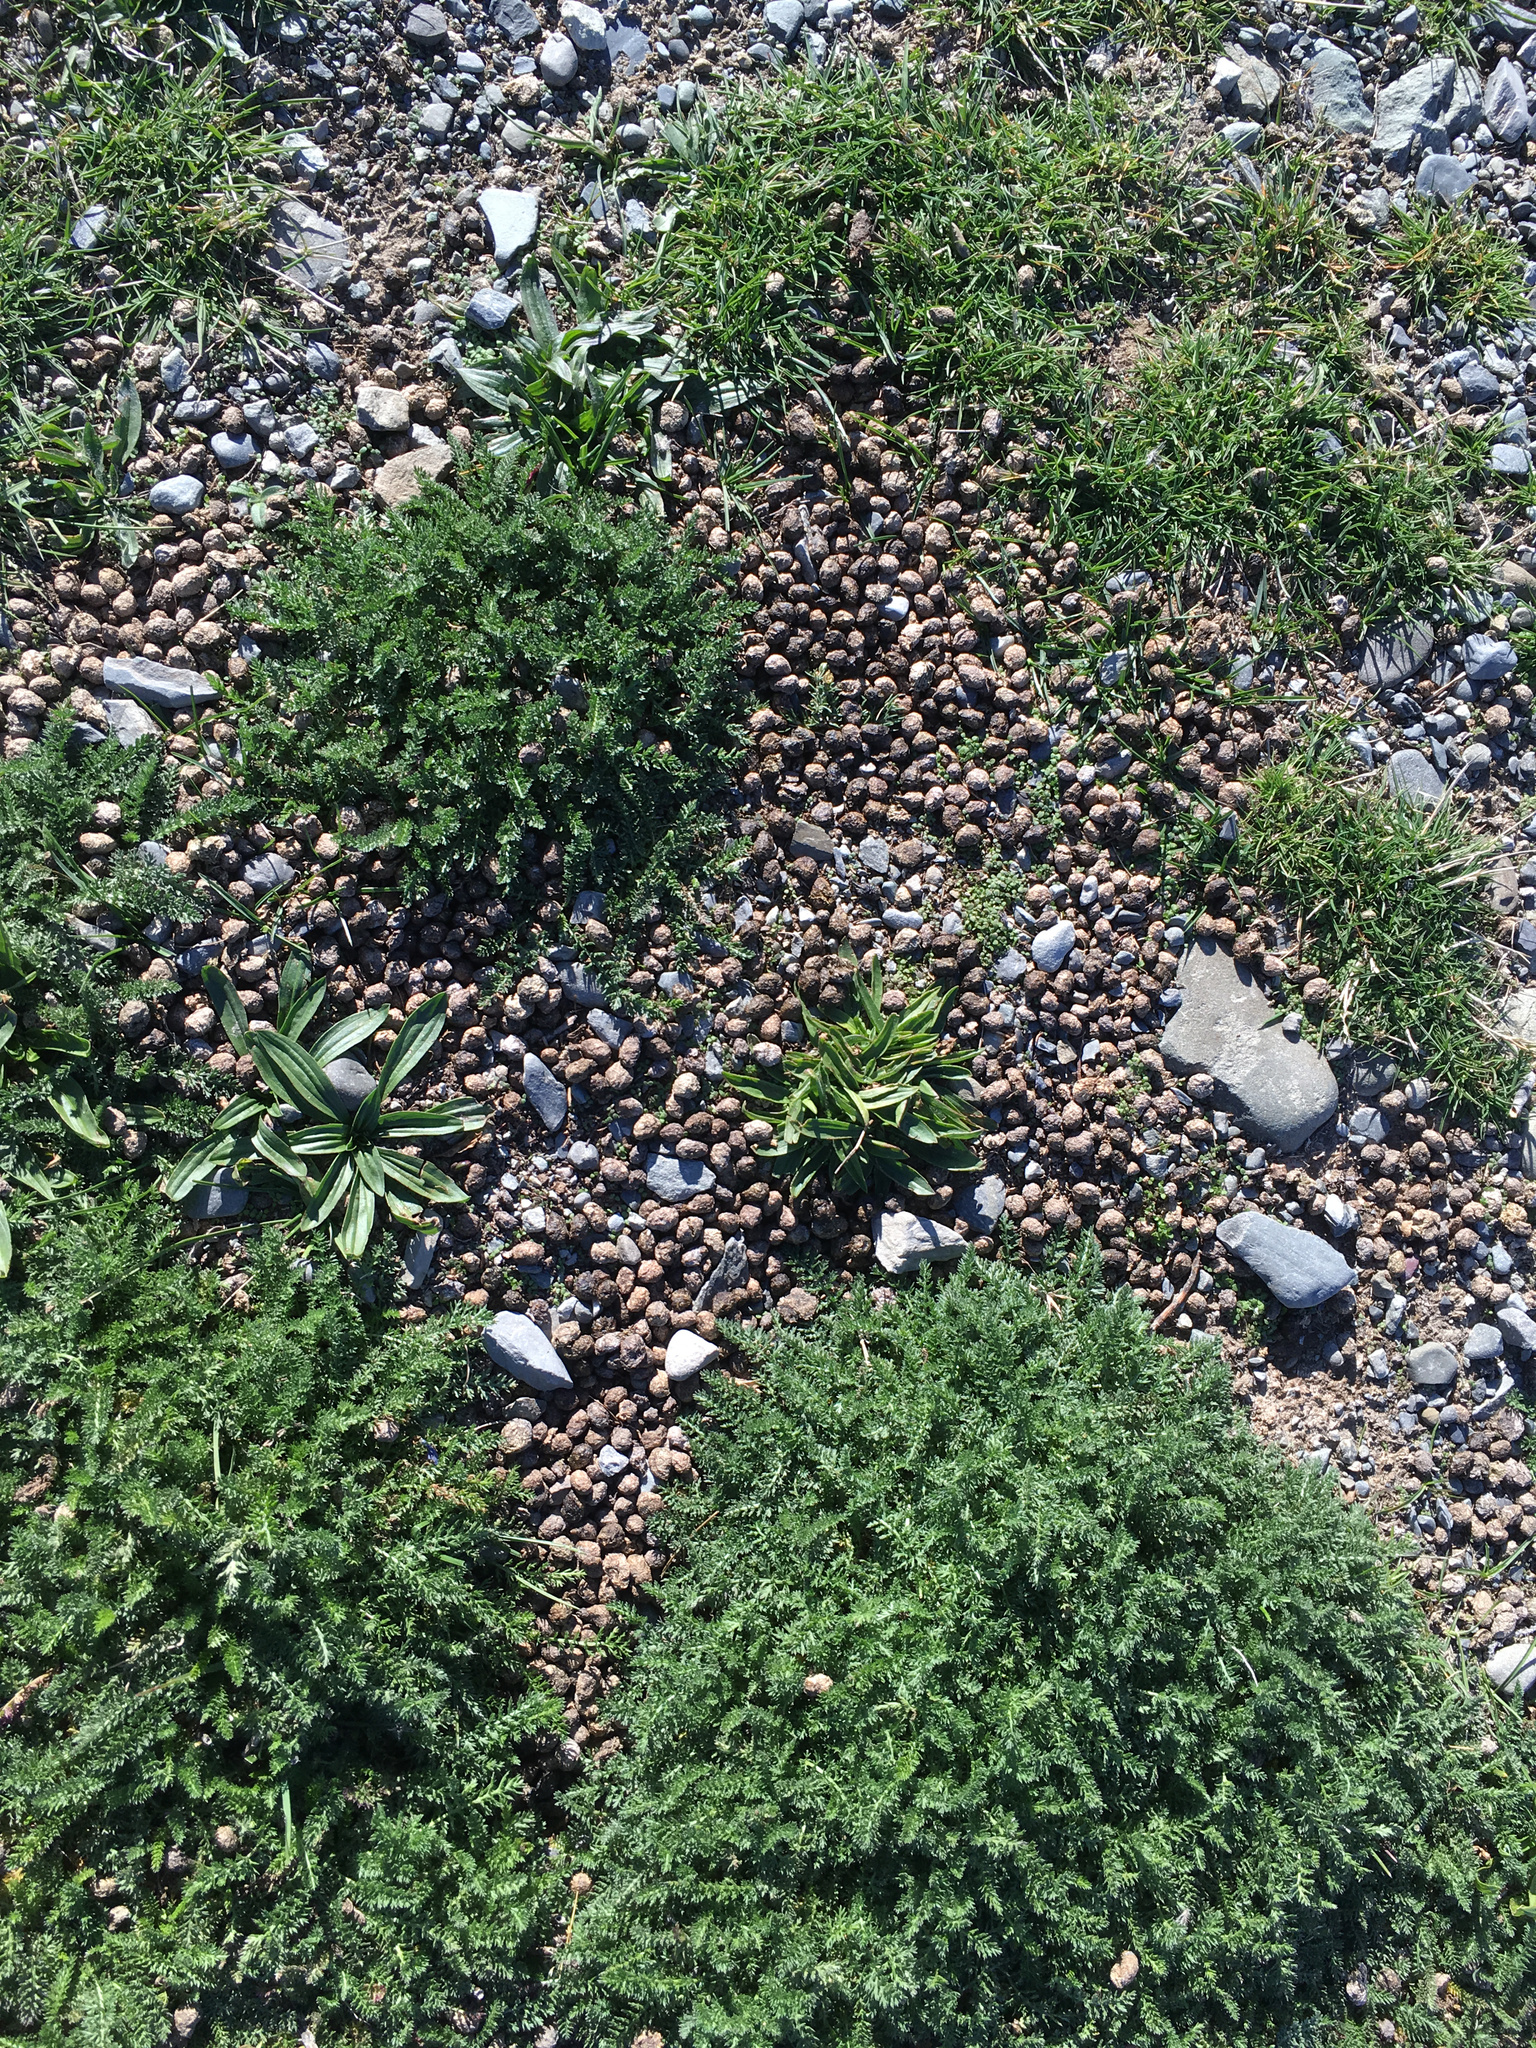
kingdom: Animalia
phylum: Chordata
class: Mammalia
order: Lagomorpha
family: Leporidae
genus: Oryctolagus
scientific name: Oryctolagus cuniculus
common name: European rabbit
